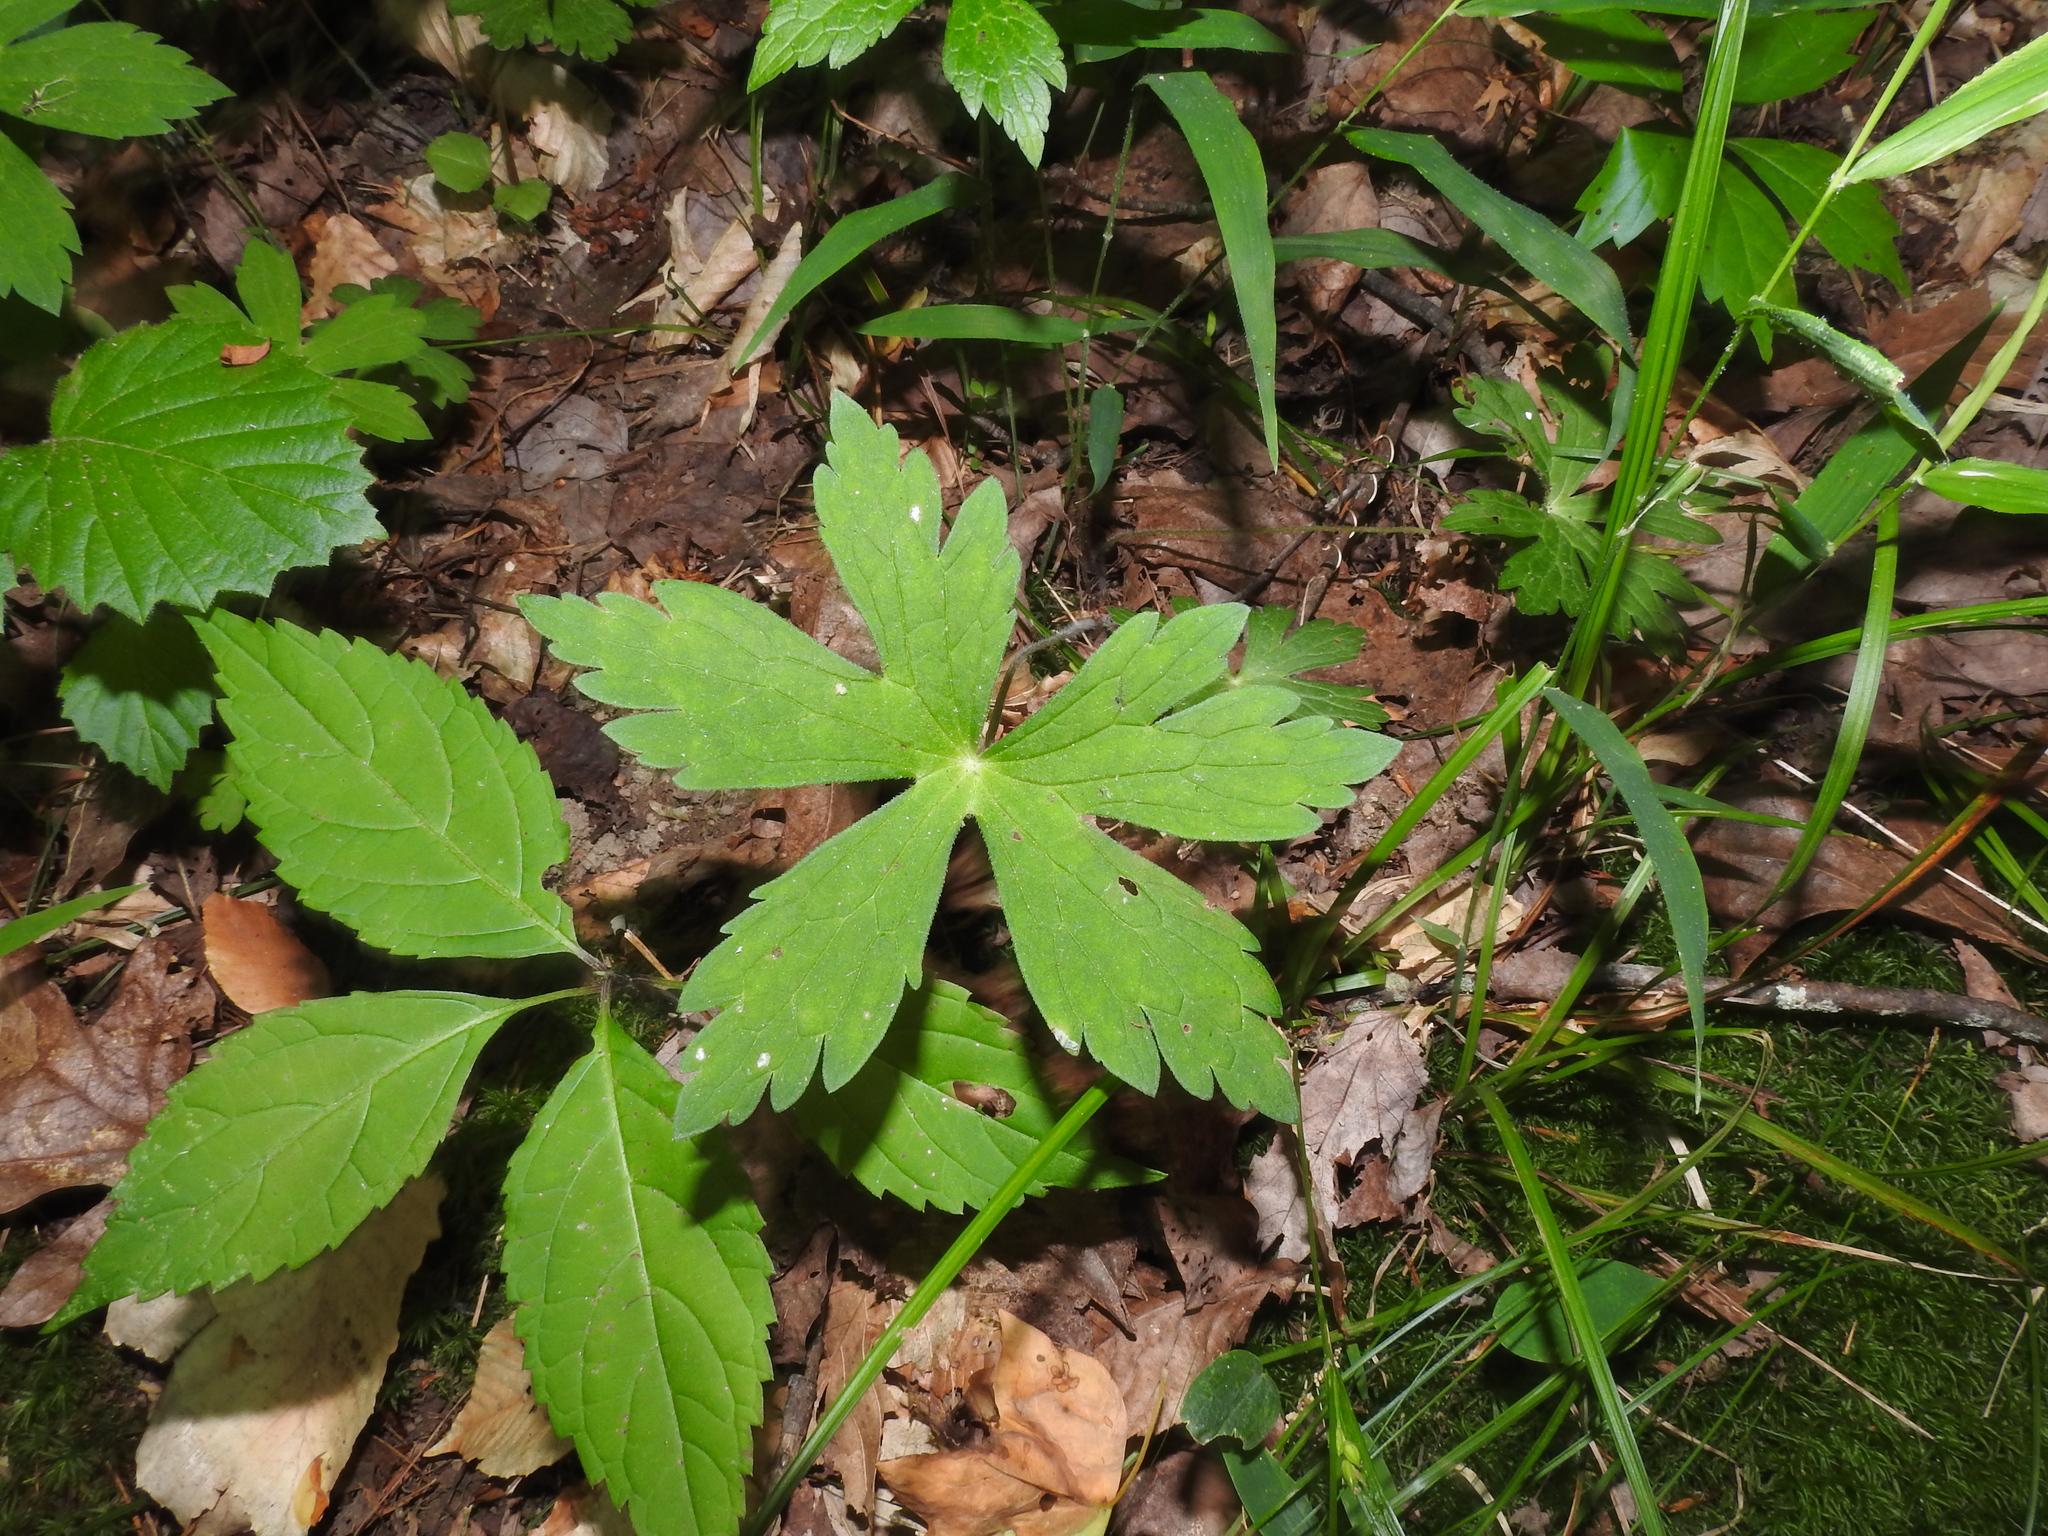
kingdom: Plantae
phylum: Tracheophyta
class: Magnoliopsida
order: Geraniales
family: Geraniaceae
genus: Geranium
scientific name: Geranium maculatum
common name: Spotted geranium
